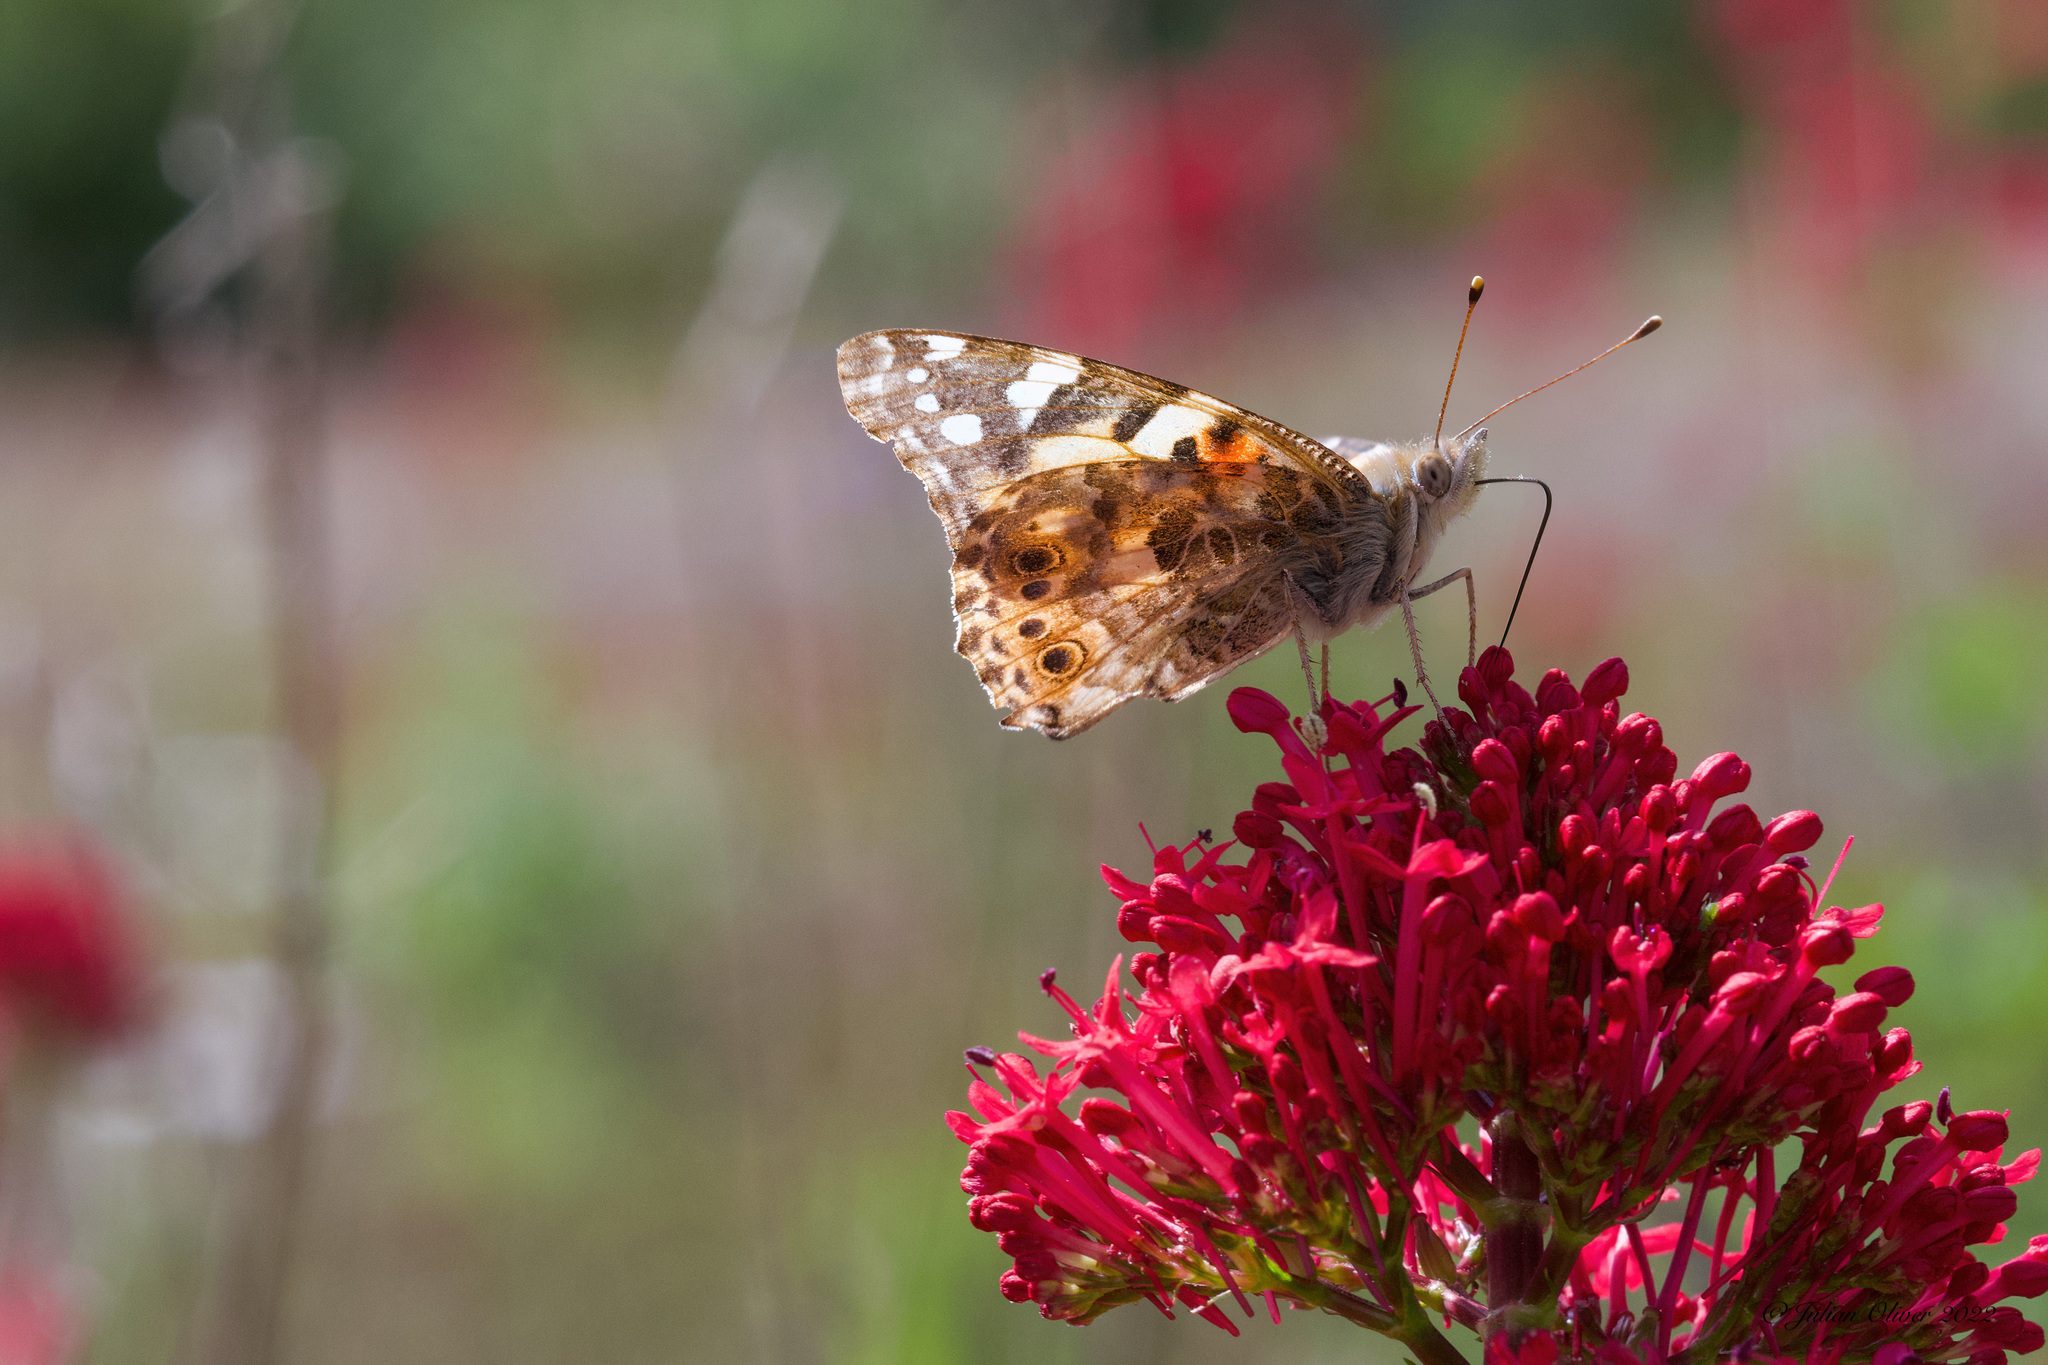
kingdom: Animalia
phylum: Arthropoda
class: Insecta
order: Lepidoptera
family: Nymphalidae
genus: Vanessa
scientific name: Vanessa cardui
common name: Painted lady
